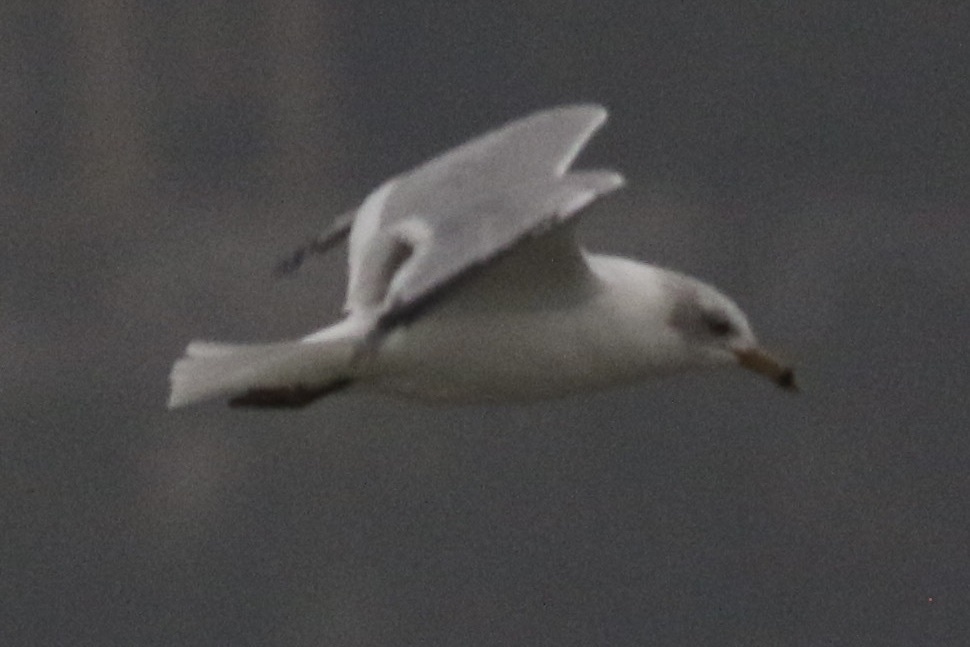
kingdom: Animalia
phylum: Chordata
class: Aves
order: Charadriiformes
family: Laridae
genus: Larus
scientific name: Larus delawarensis
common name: Ring-billed gull
